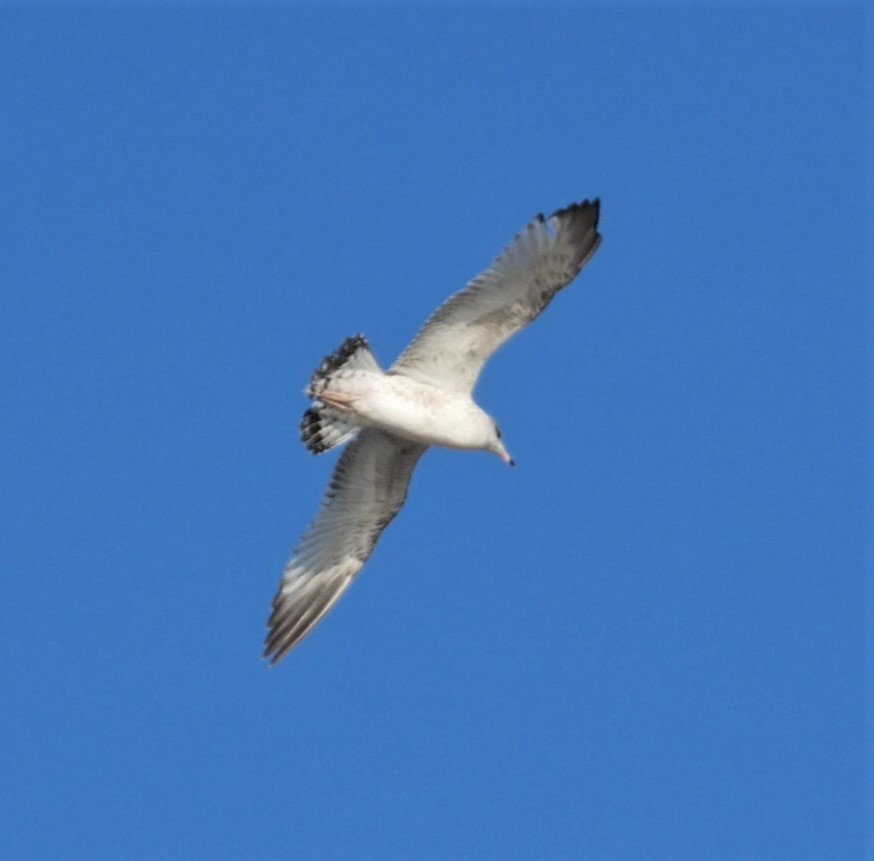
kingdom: Animalia
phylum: Chordata
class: Aves
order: Charadriiformes
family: Laridae
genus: Larus
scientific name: Larus delawarensis
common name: Ring-billed gull
